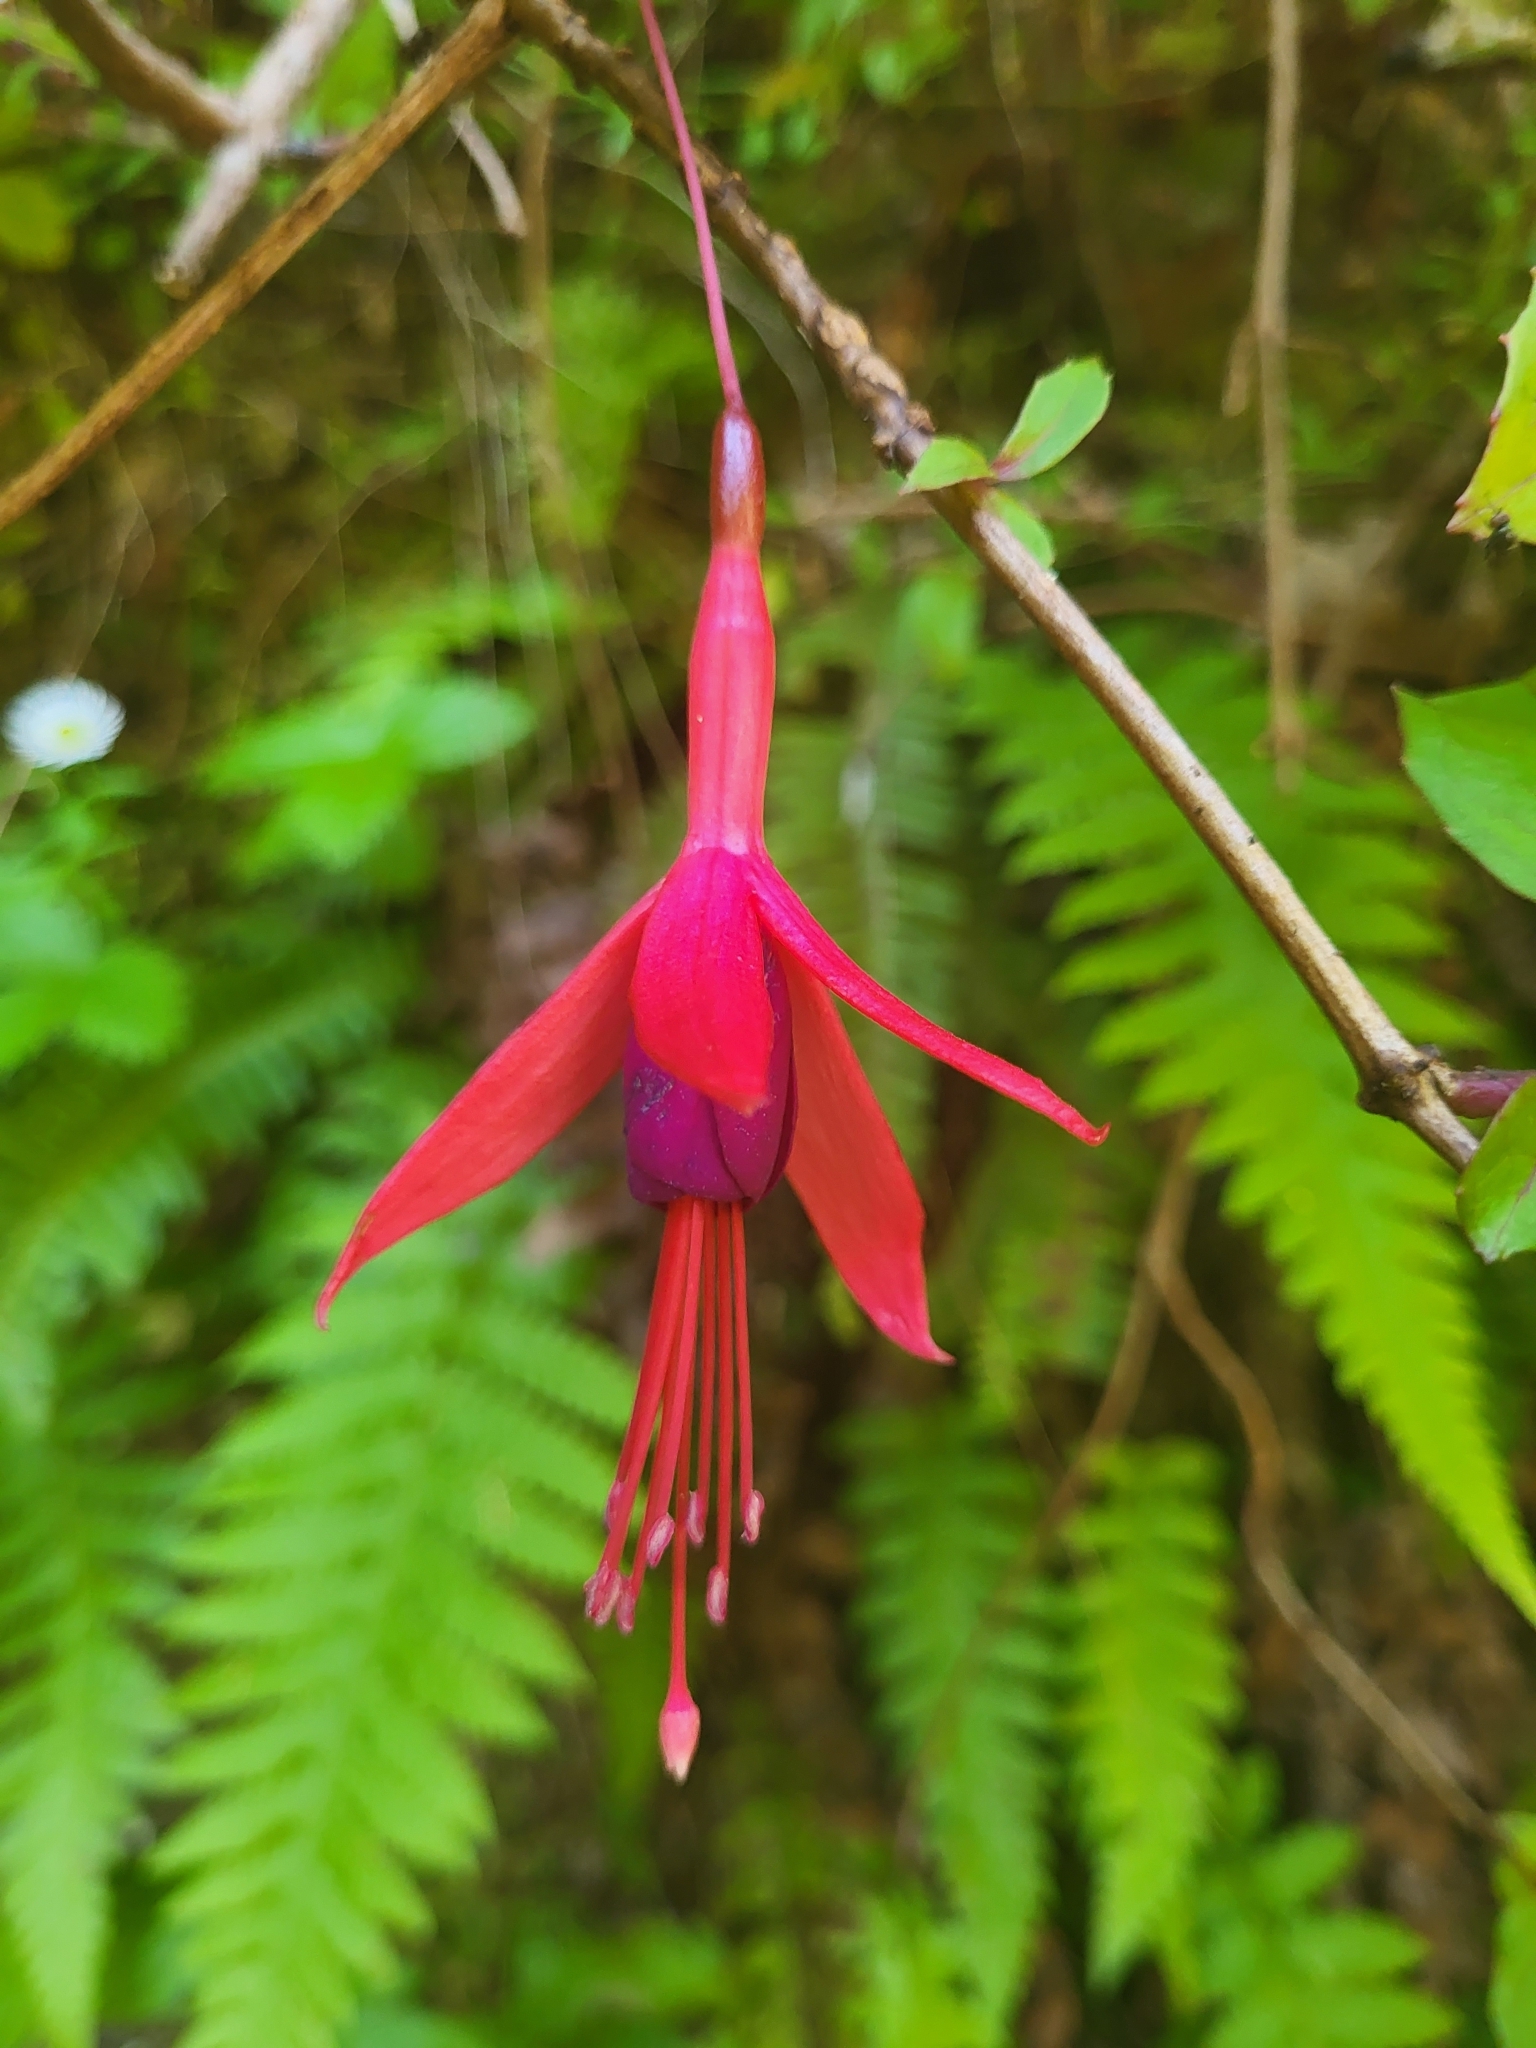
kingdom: Plantae
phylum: Tracheophyta
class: Magnoliopsida
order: Myrtales
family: Onagraceae
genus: Fuchsia
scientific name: Fuchsia magellanica
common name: Hardy fuchsia
